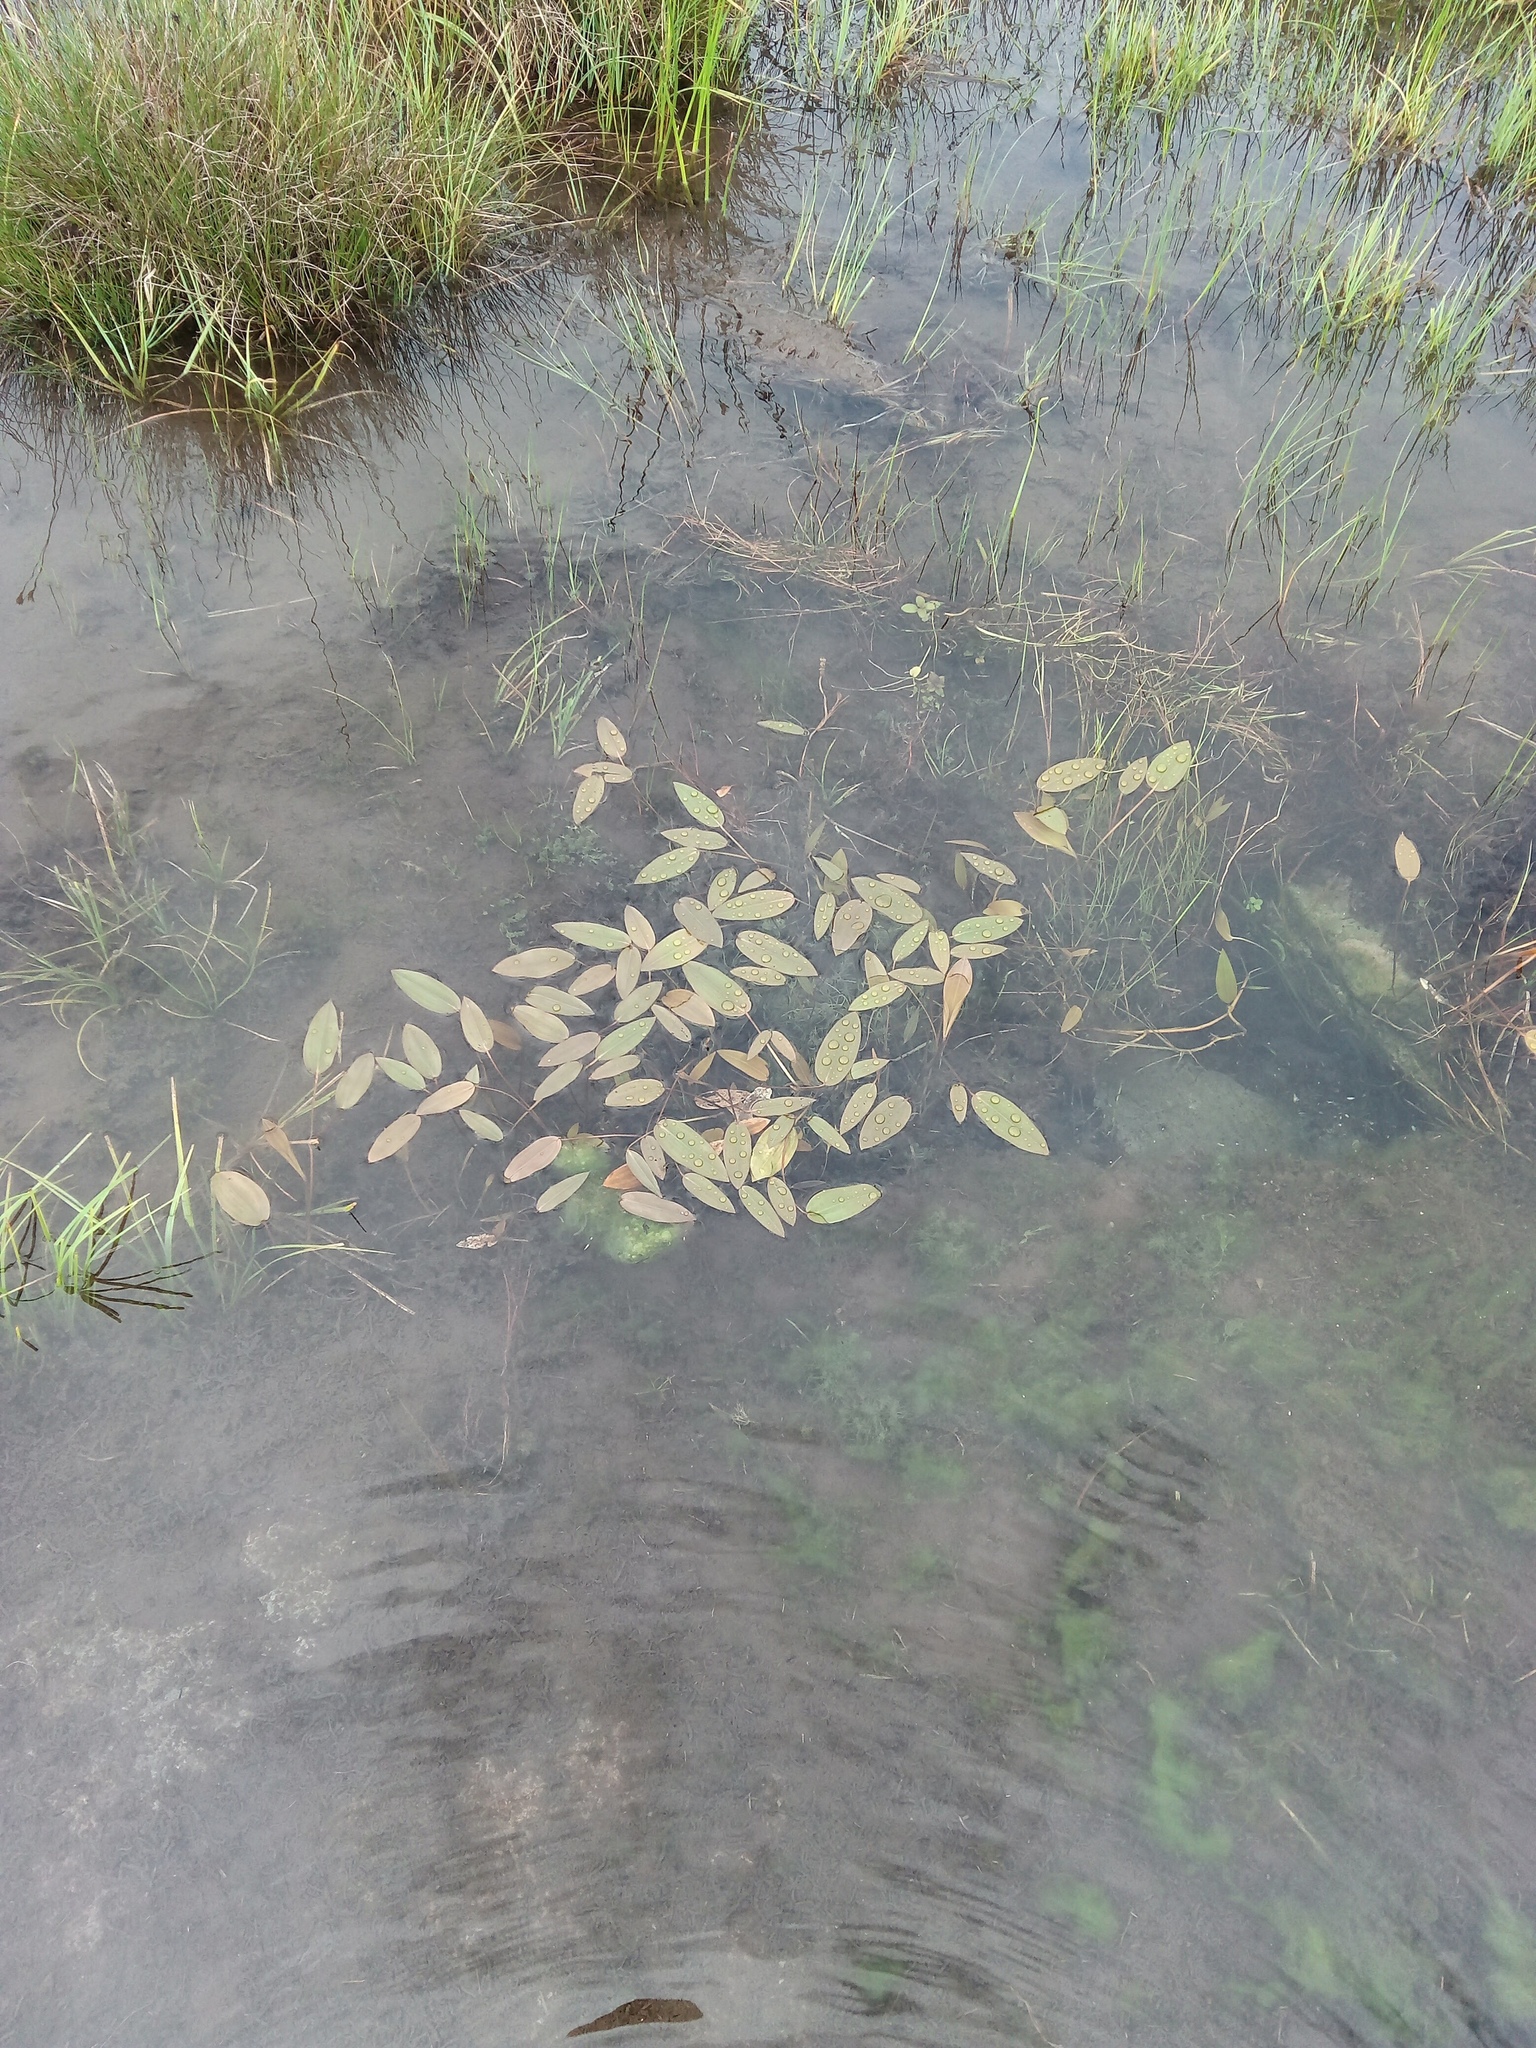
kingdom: Plantae
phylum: Tracheophyta
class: Liliopsida
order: Alismatales
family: Potamogetonaceae
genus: Potamogeton
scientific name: Potamogeton
